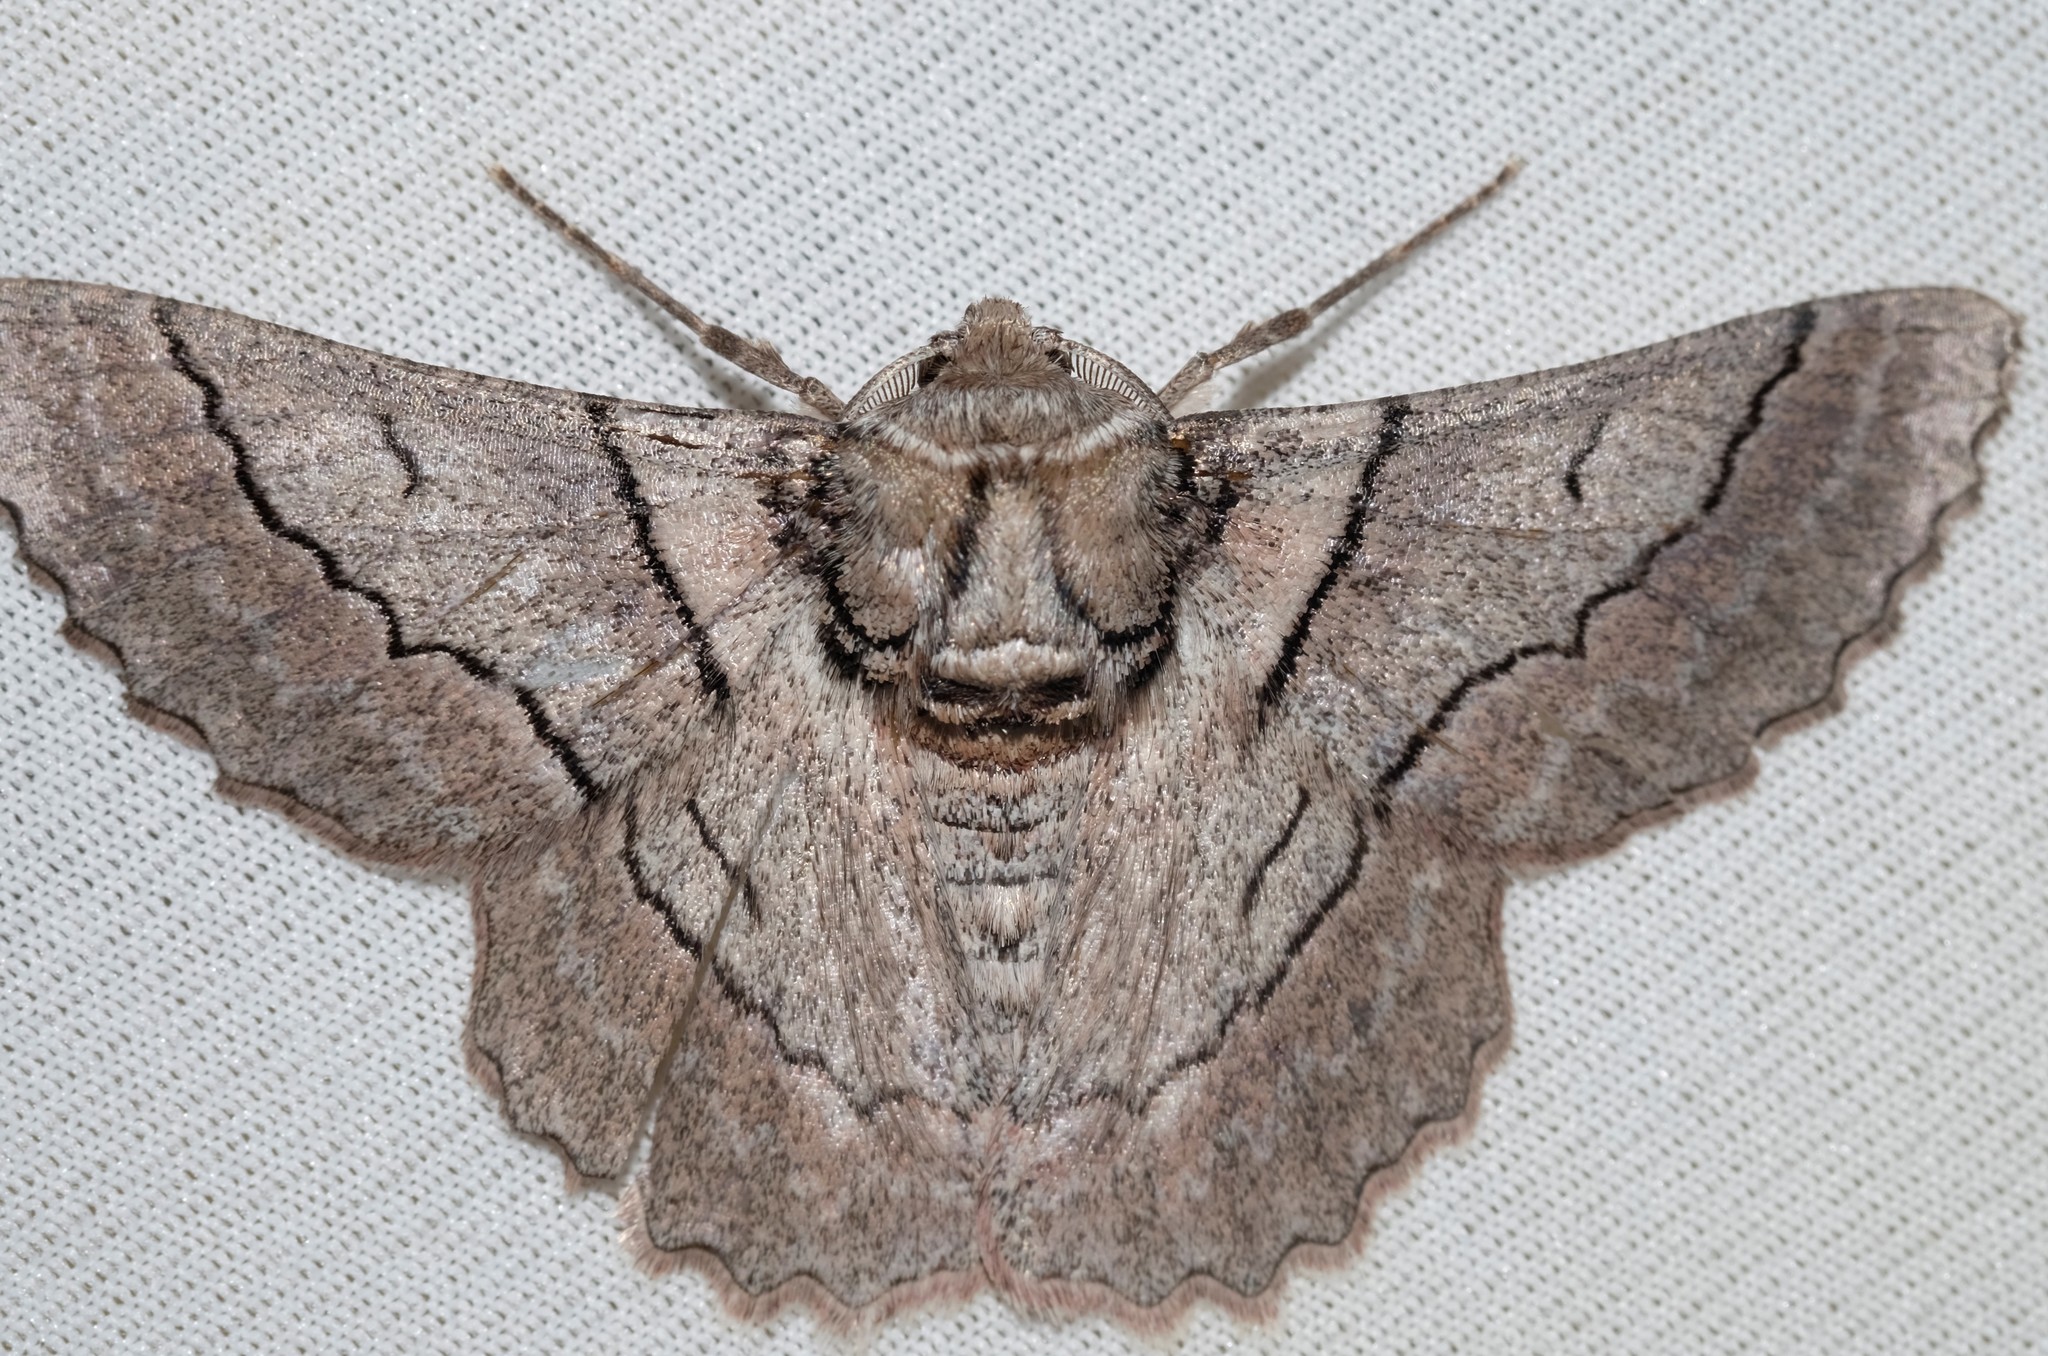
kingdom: Animalia
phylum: Arthropoda
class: Insecta
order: Lepidoptera
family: Geometridae
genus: Hypobapta
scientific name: Hypobapta tachyhalotaria
